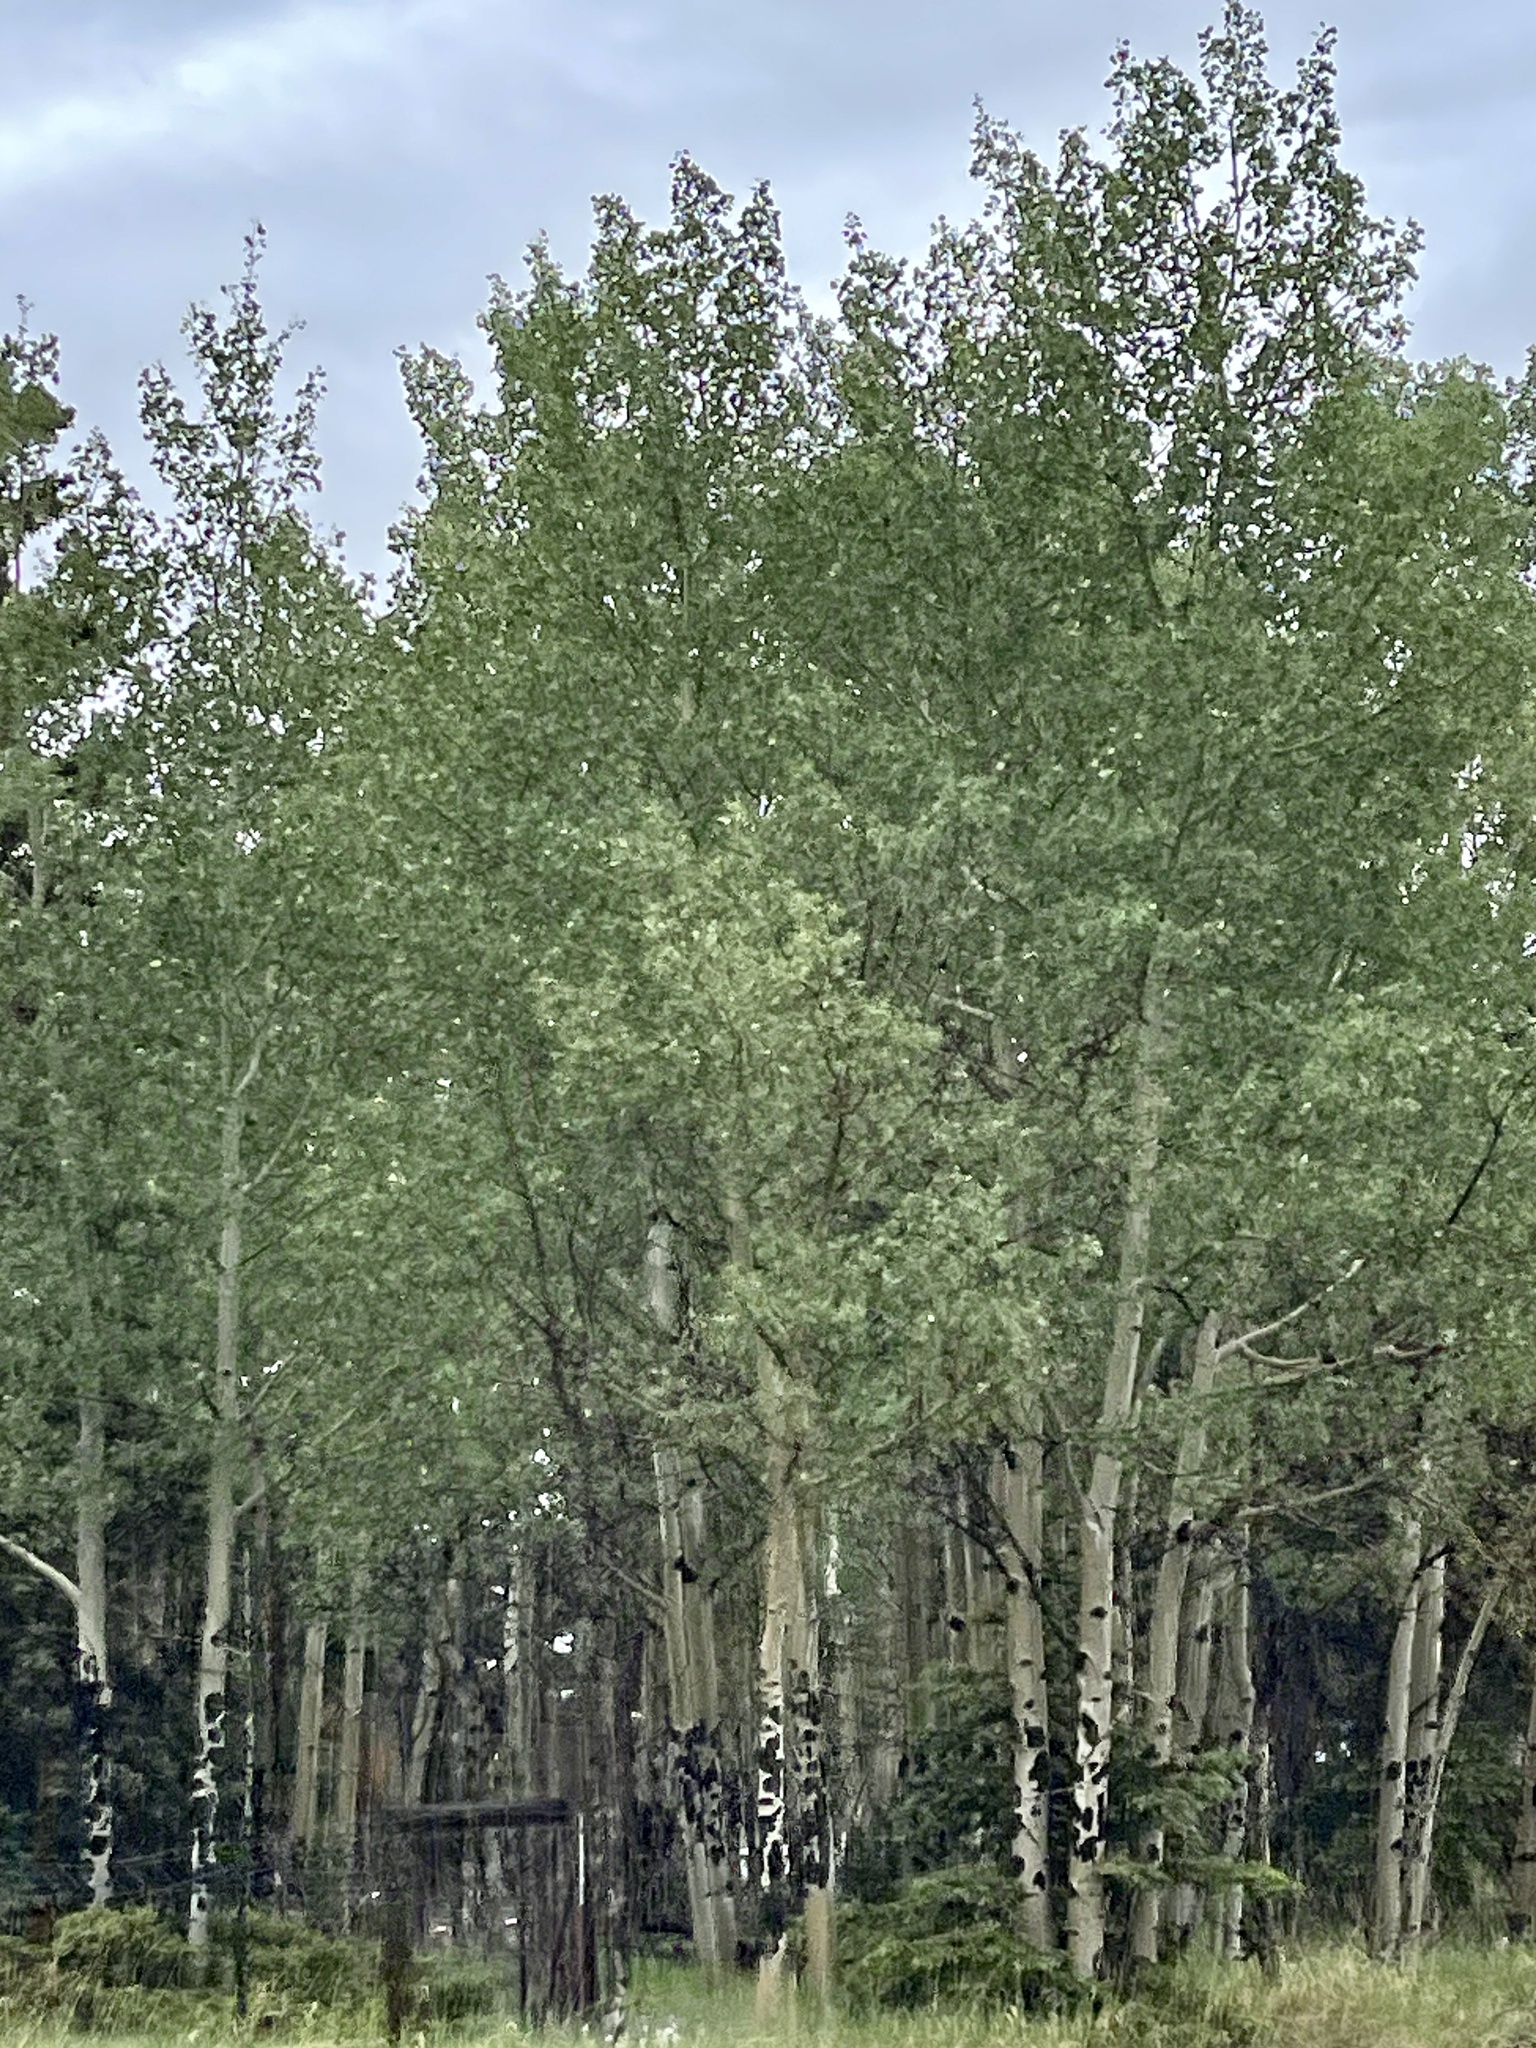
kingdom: Plantae
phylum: Tracheophyta
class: Magnoliopsida
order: Malpighiales
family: Salicaceae
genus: Populus
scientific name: Populus tremuloides
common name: Quaking aspen
